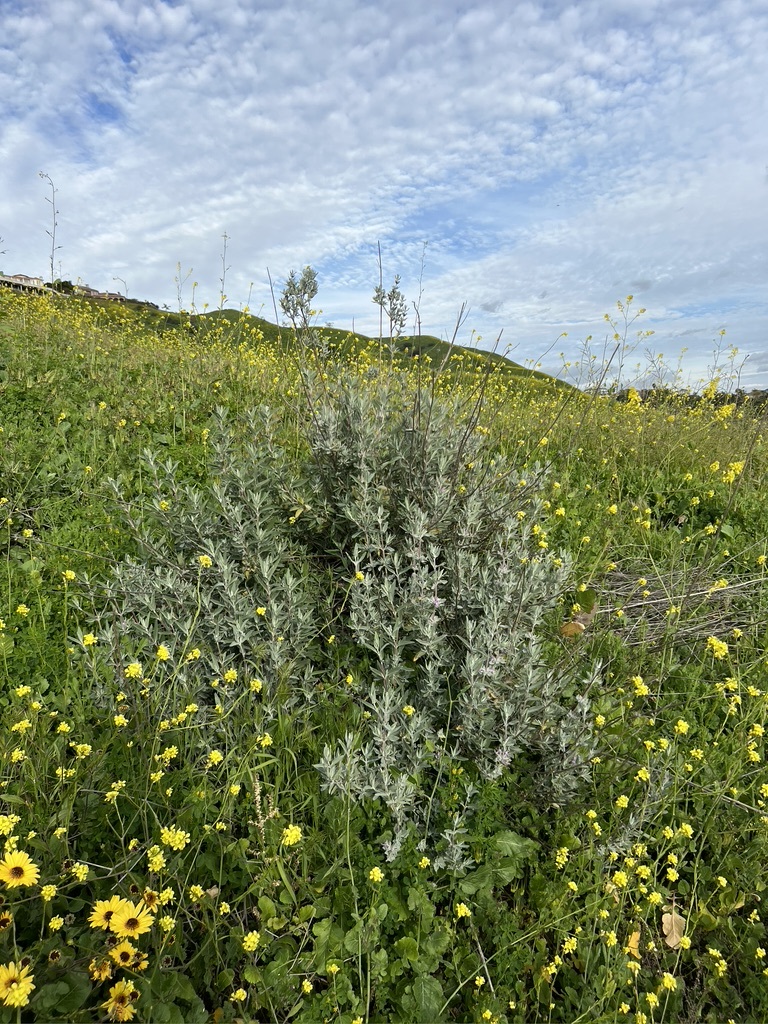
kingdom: Plantae
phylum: Tracheophyta
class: Magnoliopsida
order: Lamiales
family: Lamiaceae
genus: Salvia
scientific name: Salvia leucophylla
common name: Purple sage
